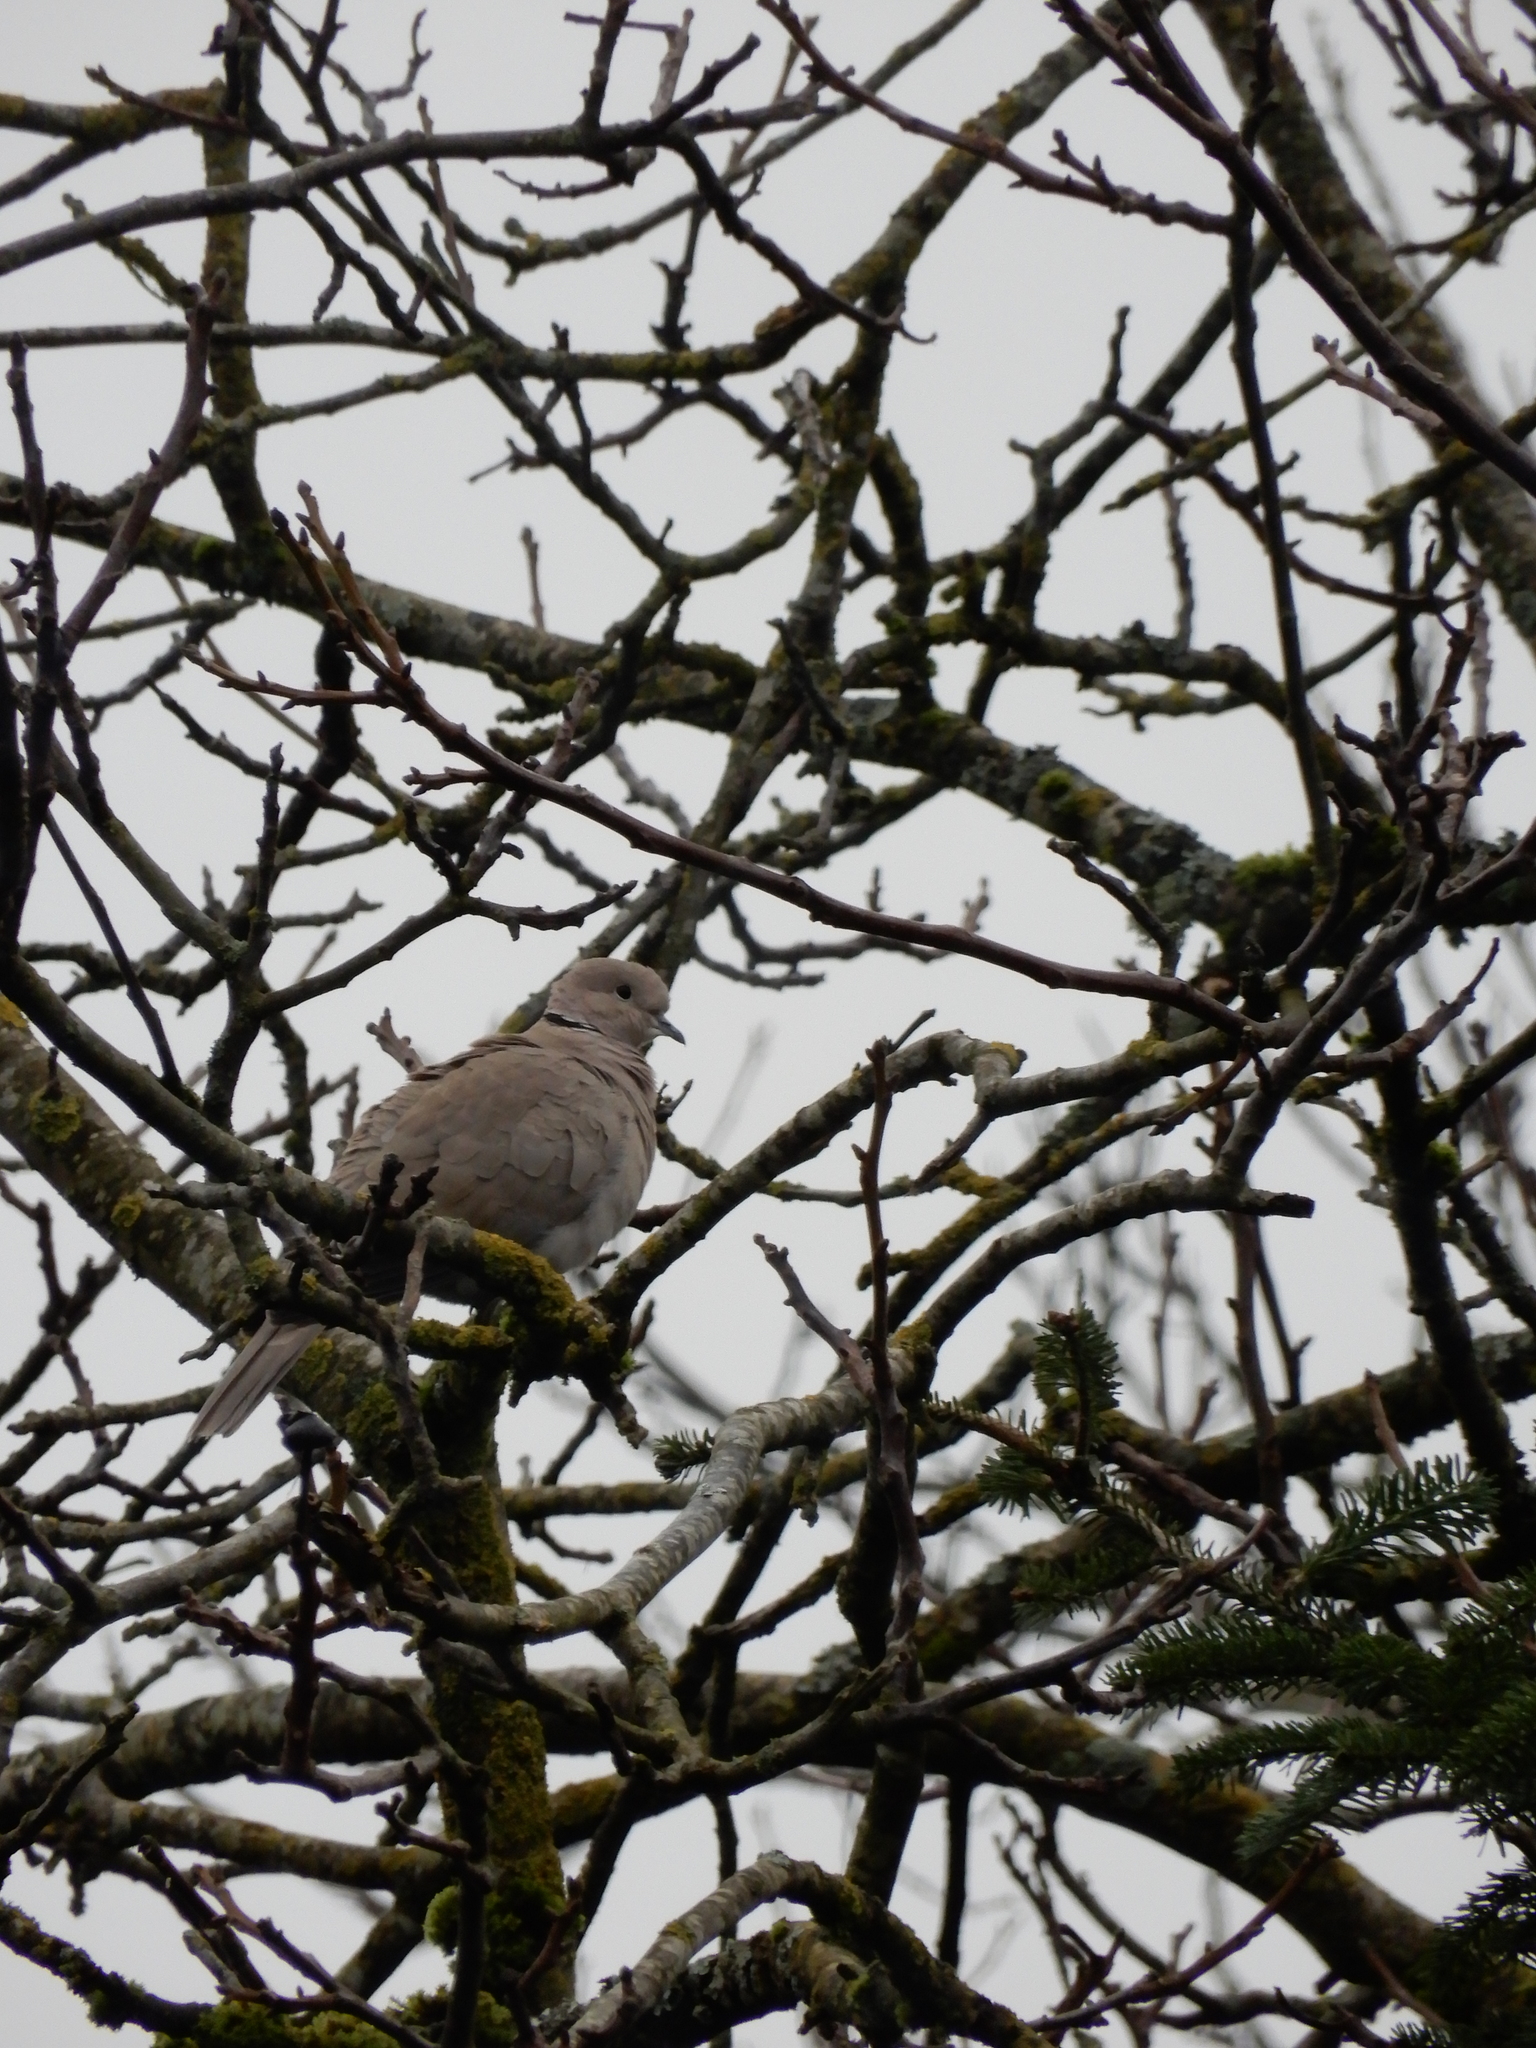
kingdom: Animalia
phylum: Chordata
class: Aves
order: Columbiformes
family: Columbidae
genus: Streptopelia
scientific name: Streptopelia decaocto
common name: Eurasian collared dove
